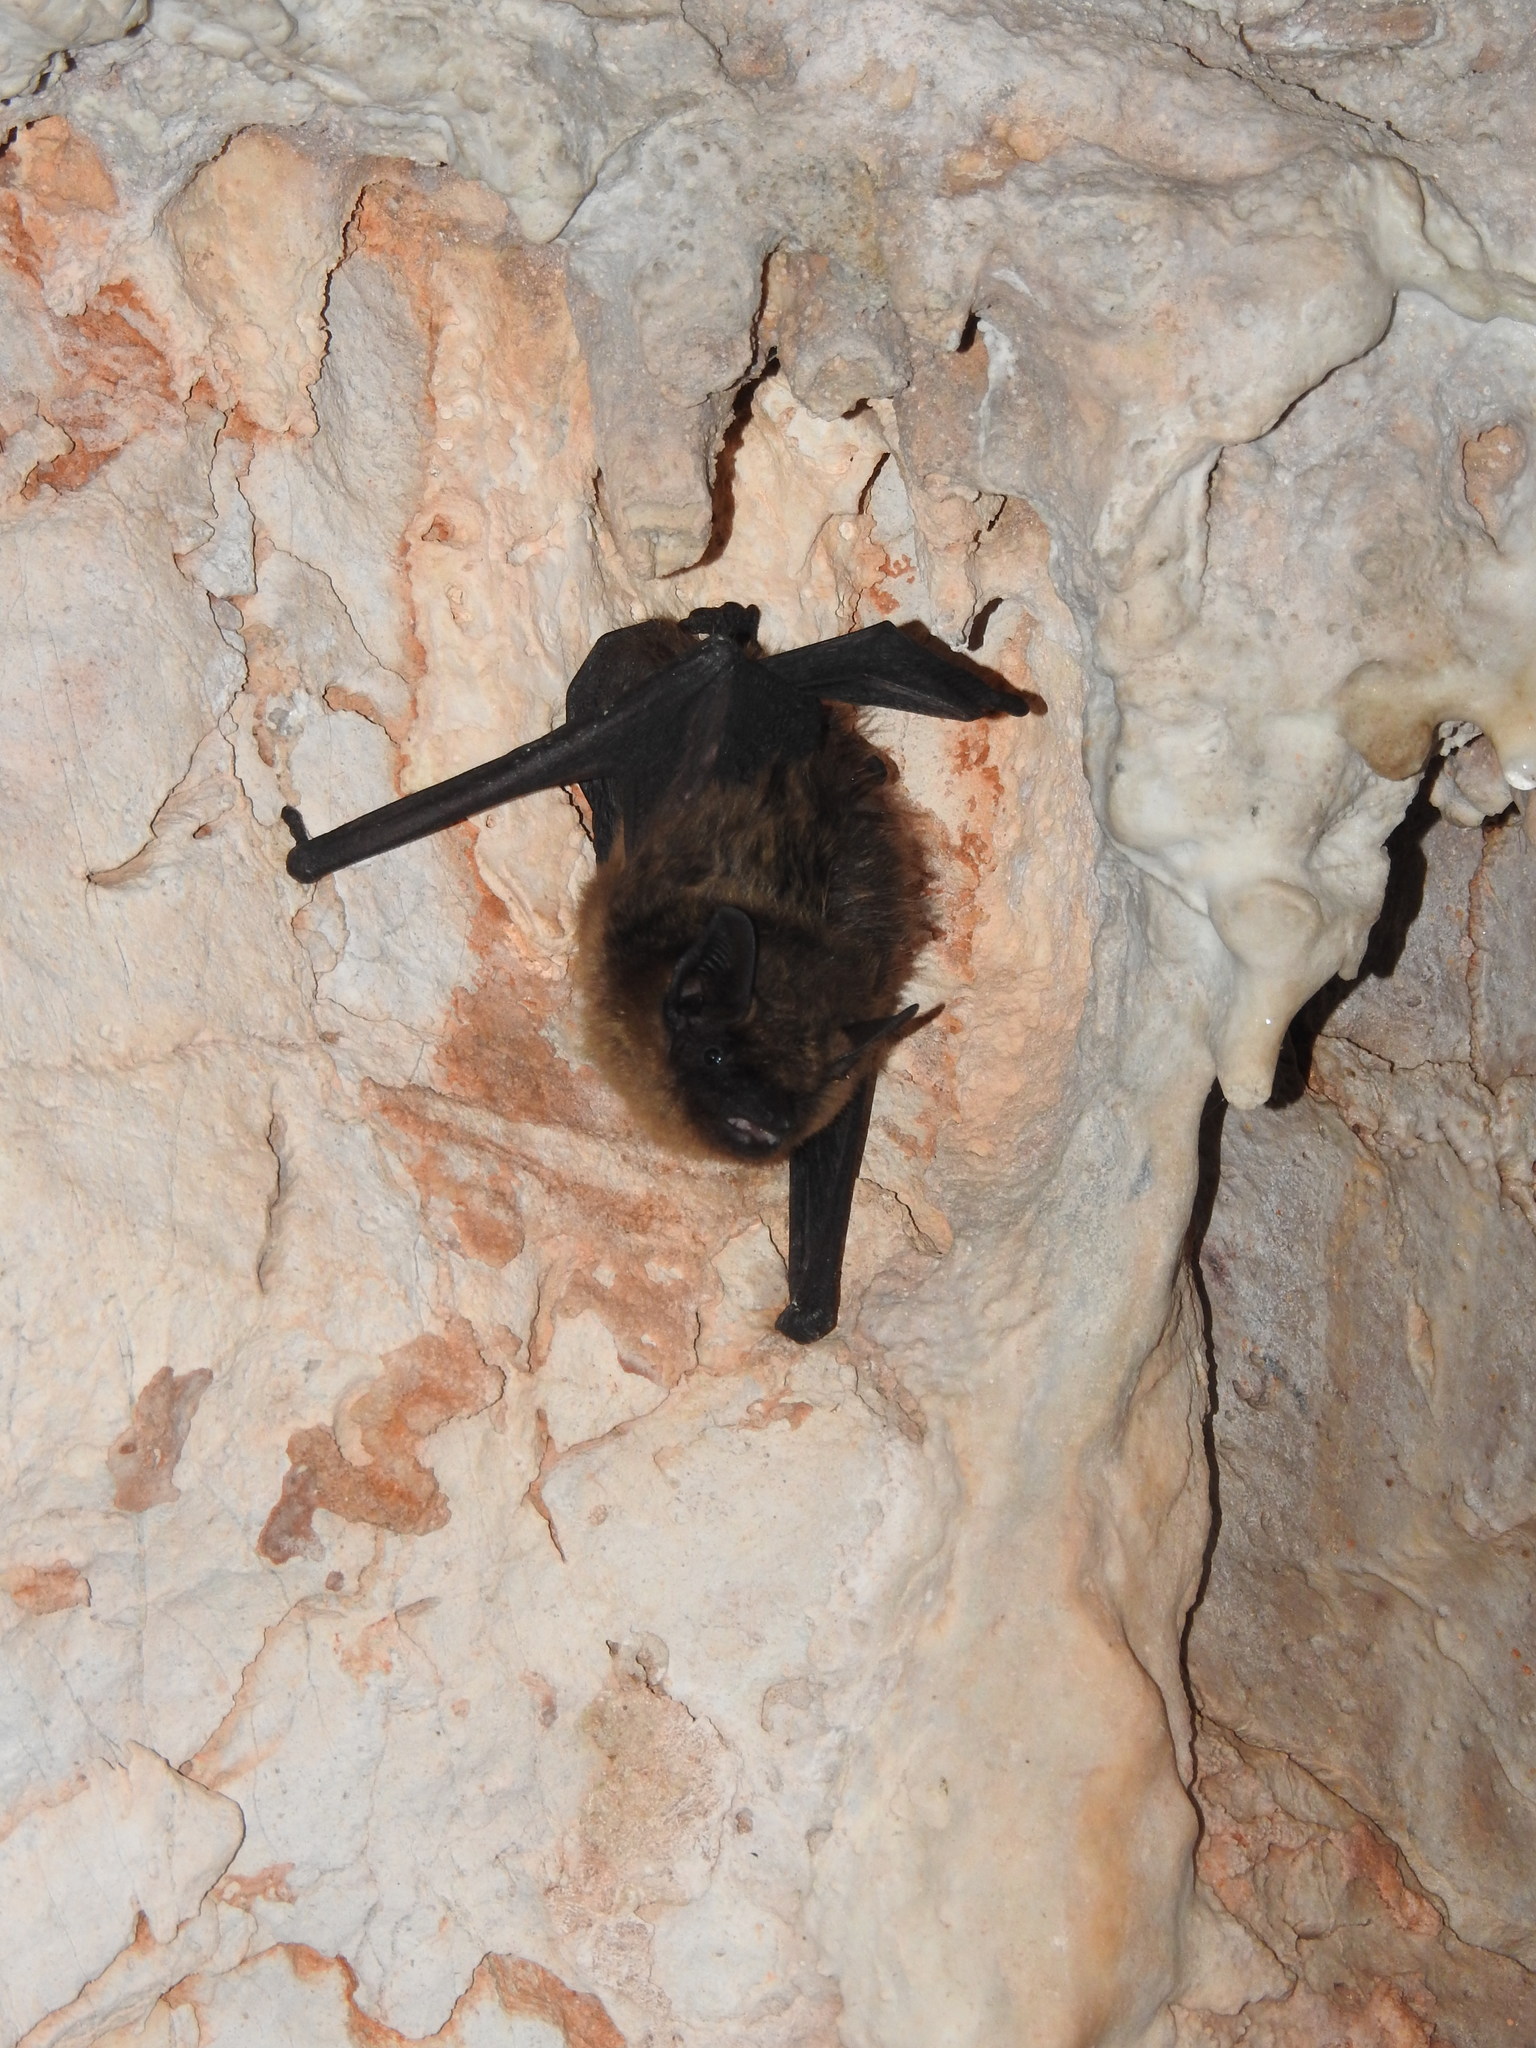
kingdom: Animalia
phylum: Chordata
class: Mammalia
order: Chiroptera
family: Vespertilionidae
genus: Eptesicus
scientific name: Eptesicus serotinus
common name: Serotine
